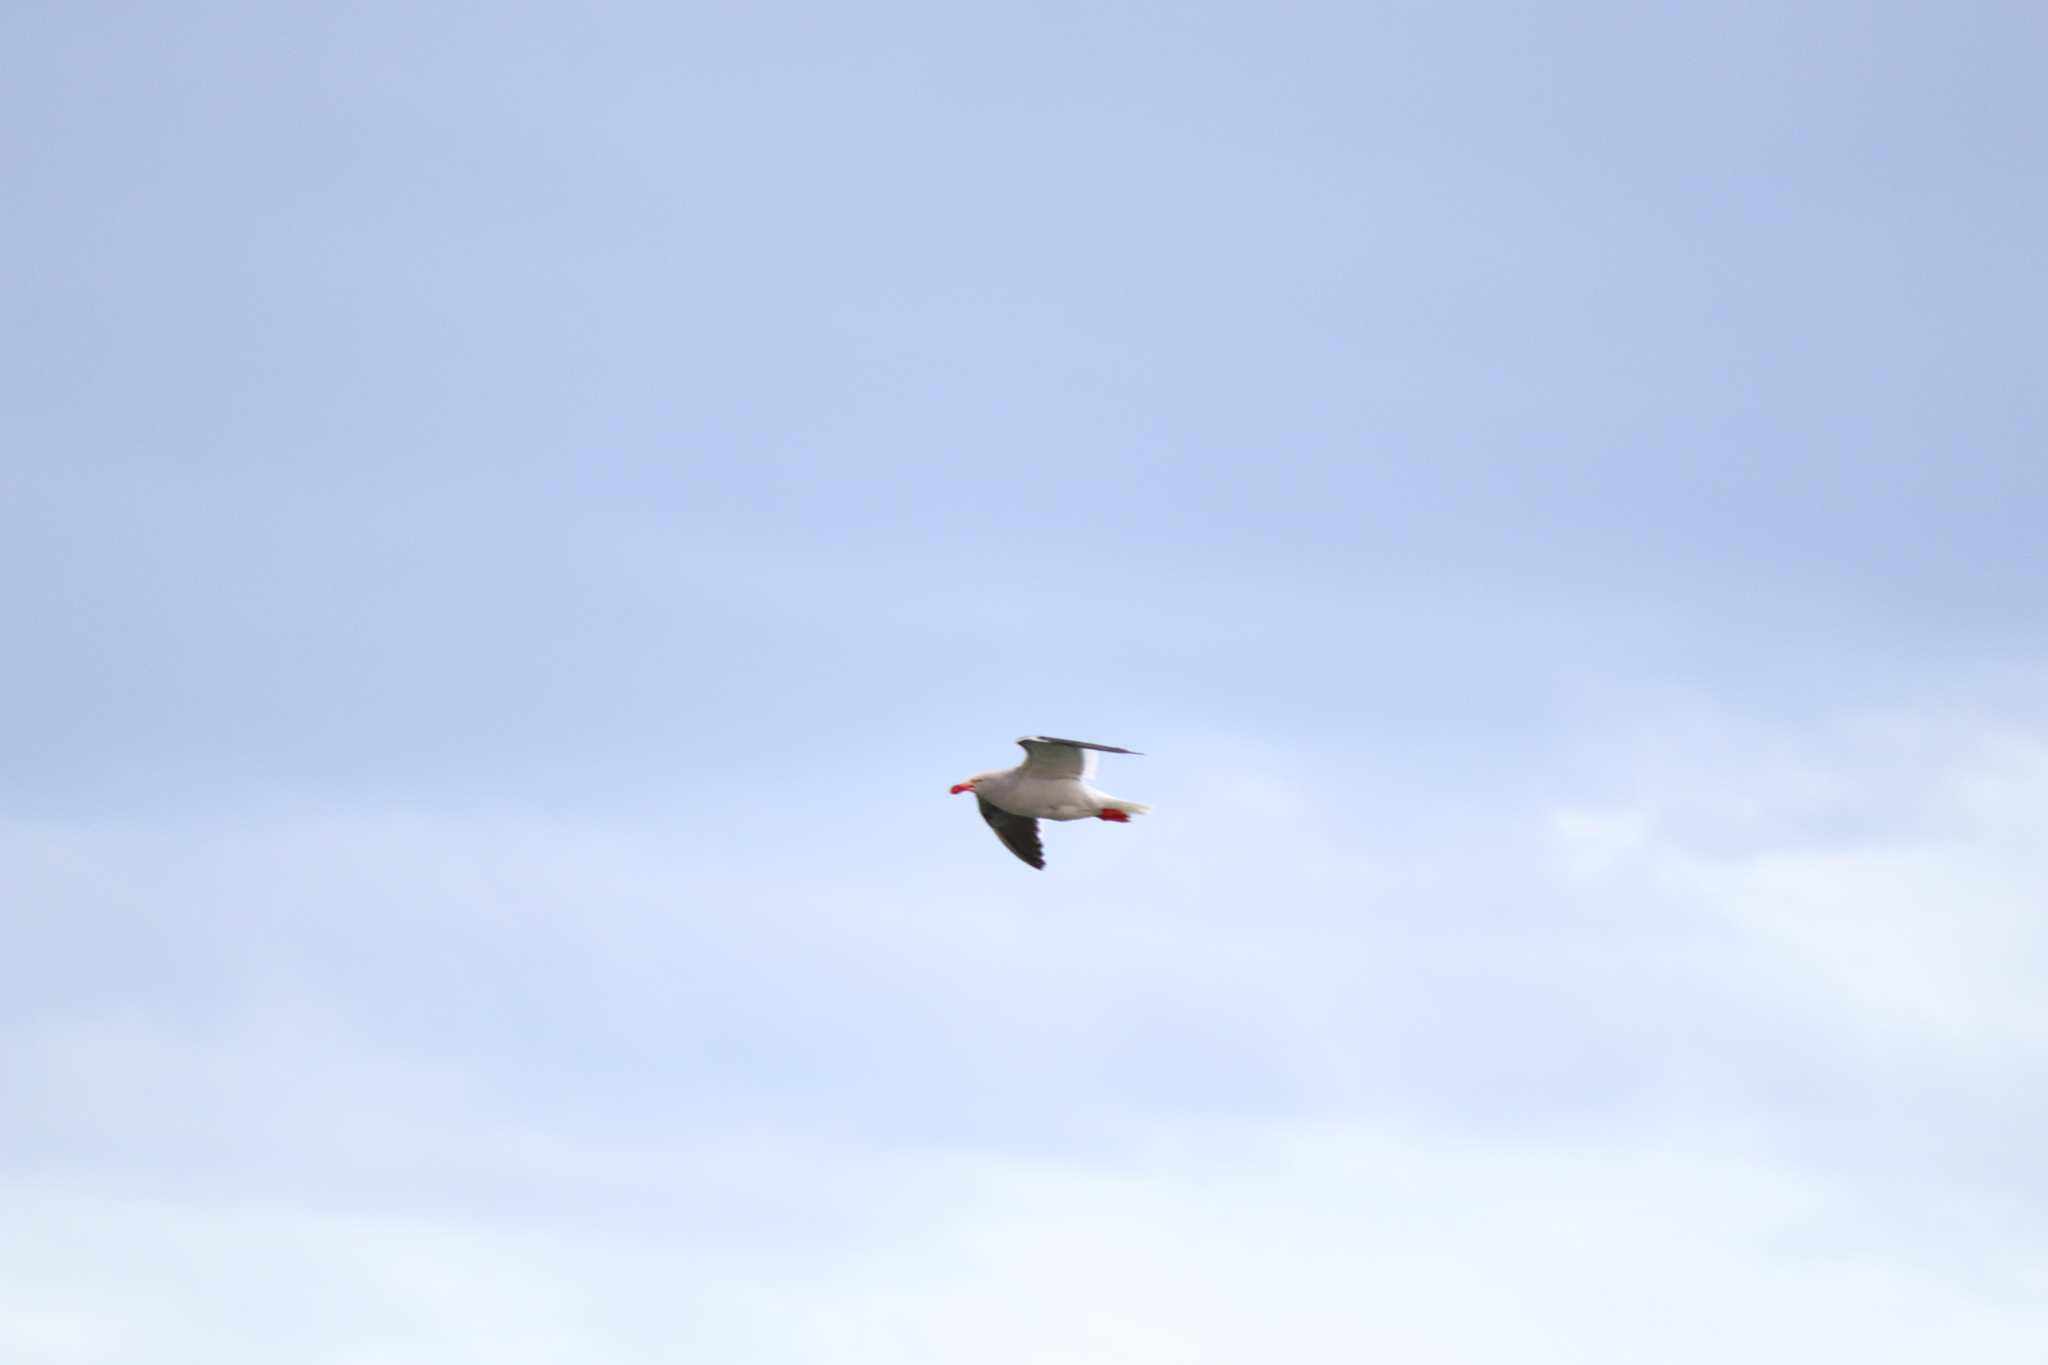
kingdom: Animalia
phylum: Chordata
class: Aves
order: Charadriiformes
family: Laridae
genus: Leucophaeus
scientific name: Leucophaeus scoresbii
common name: Dolphin gull
